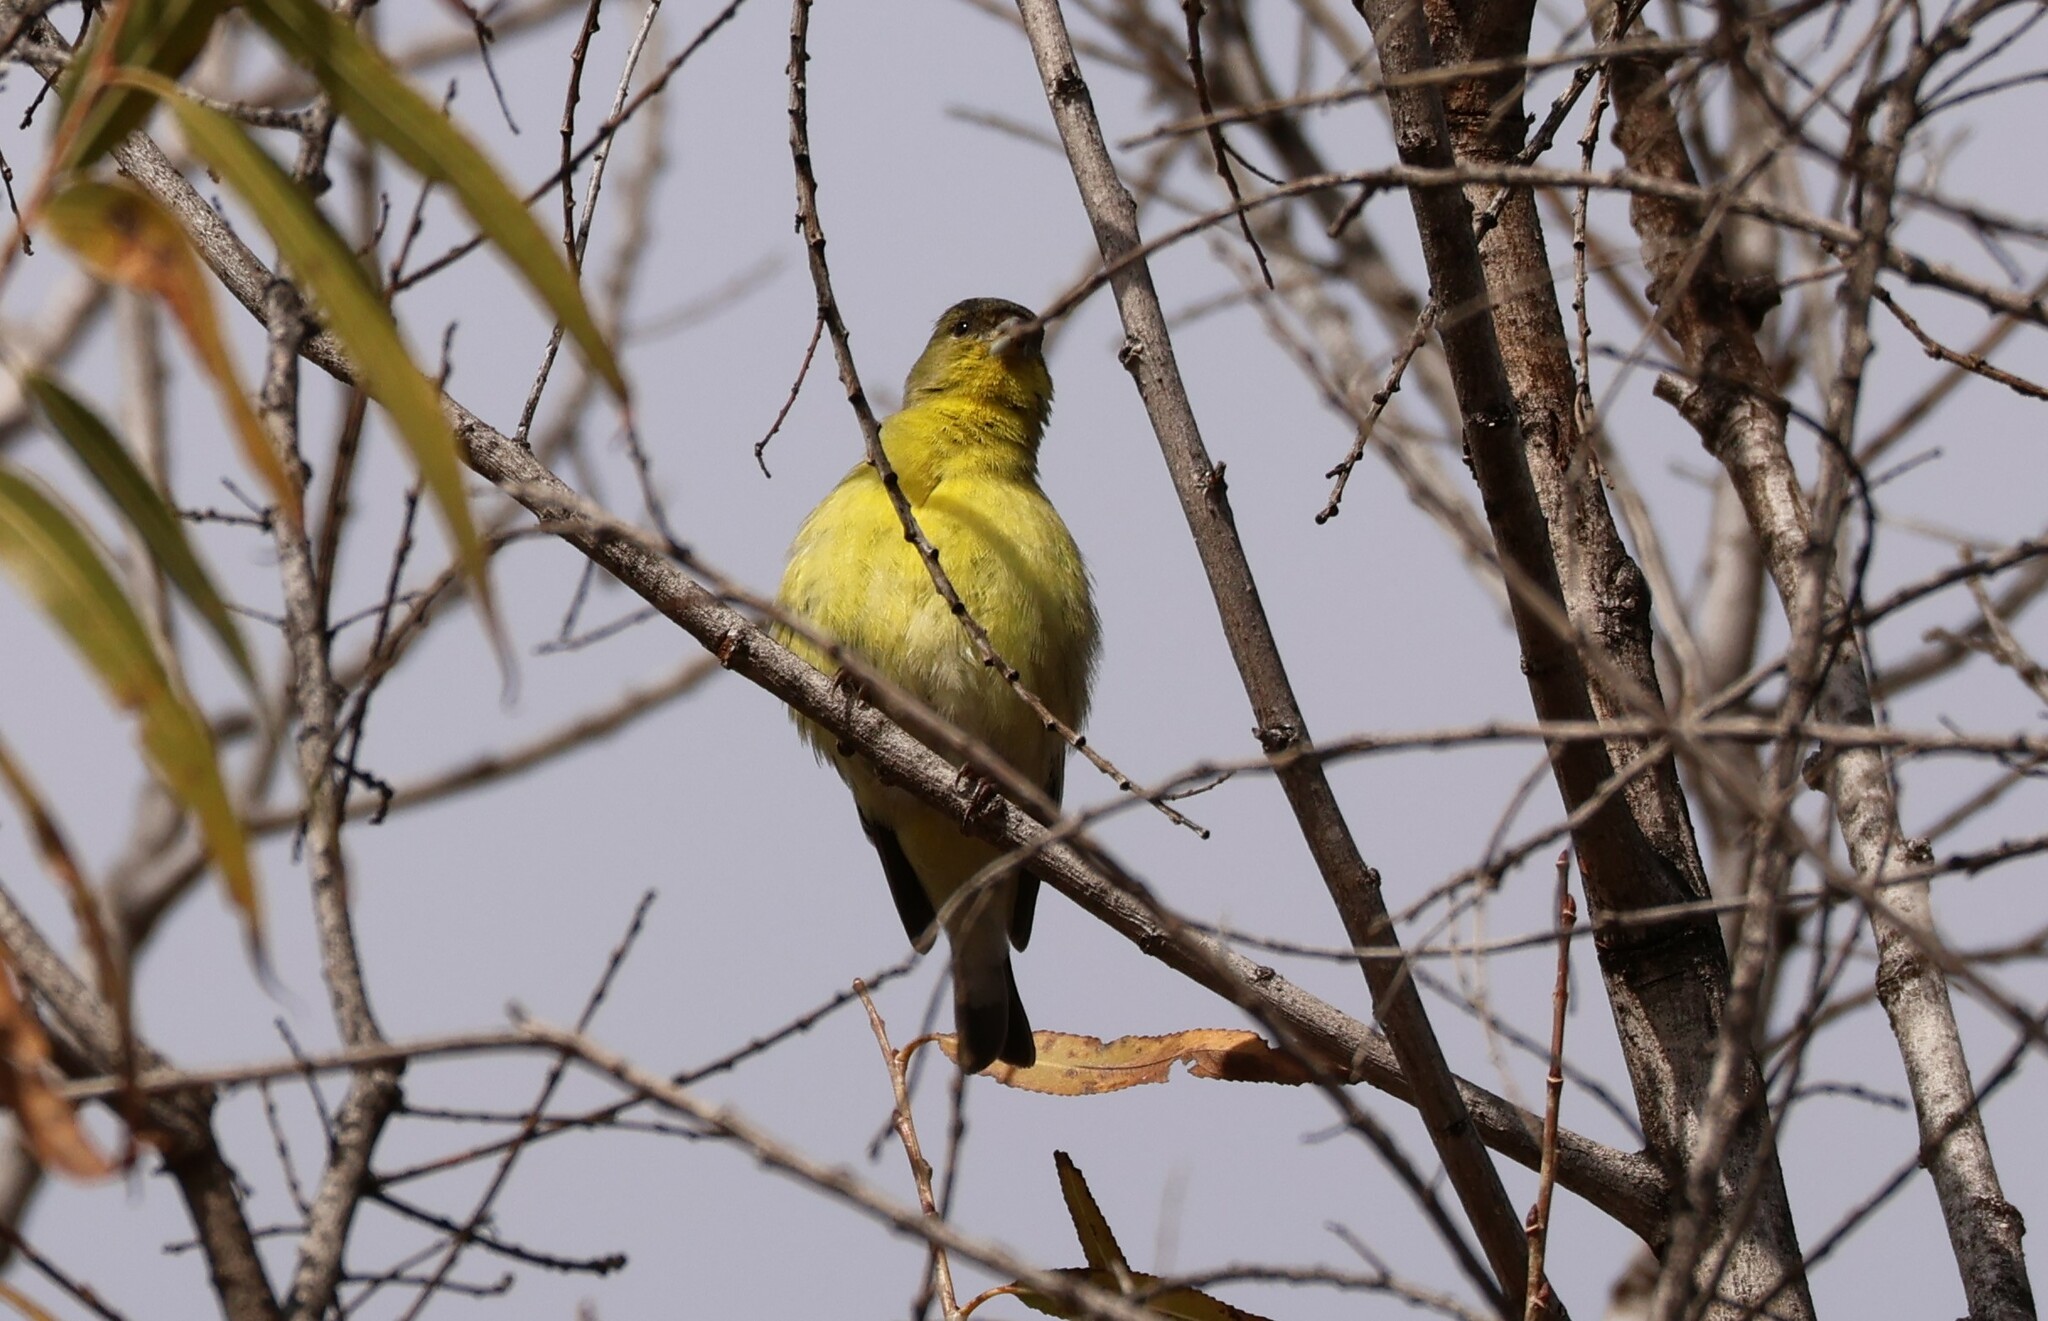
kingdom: Animalia
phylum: Chordata
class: Aves
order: Passeriformes
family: Fringillidae
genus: Spinus
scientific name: Spinus psaltria
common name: Lesser goldfinch
